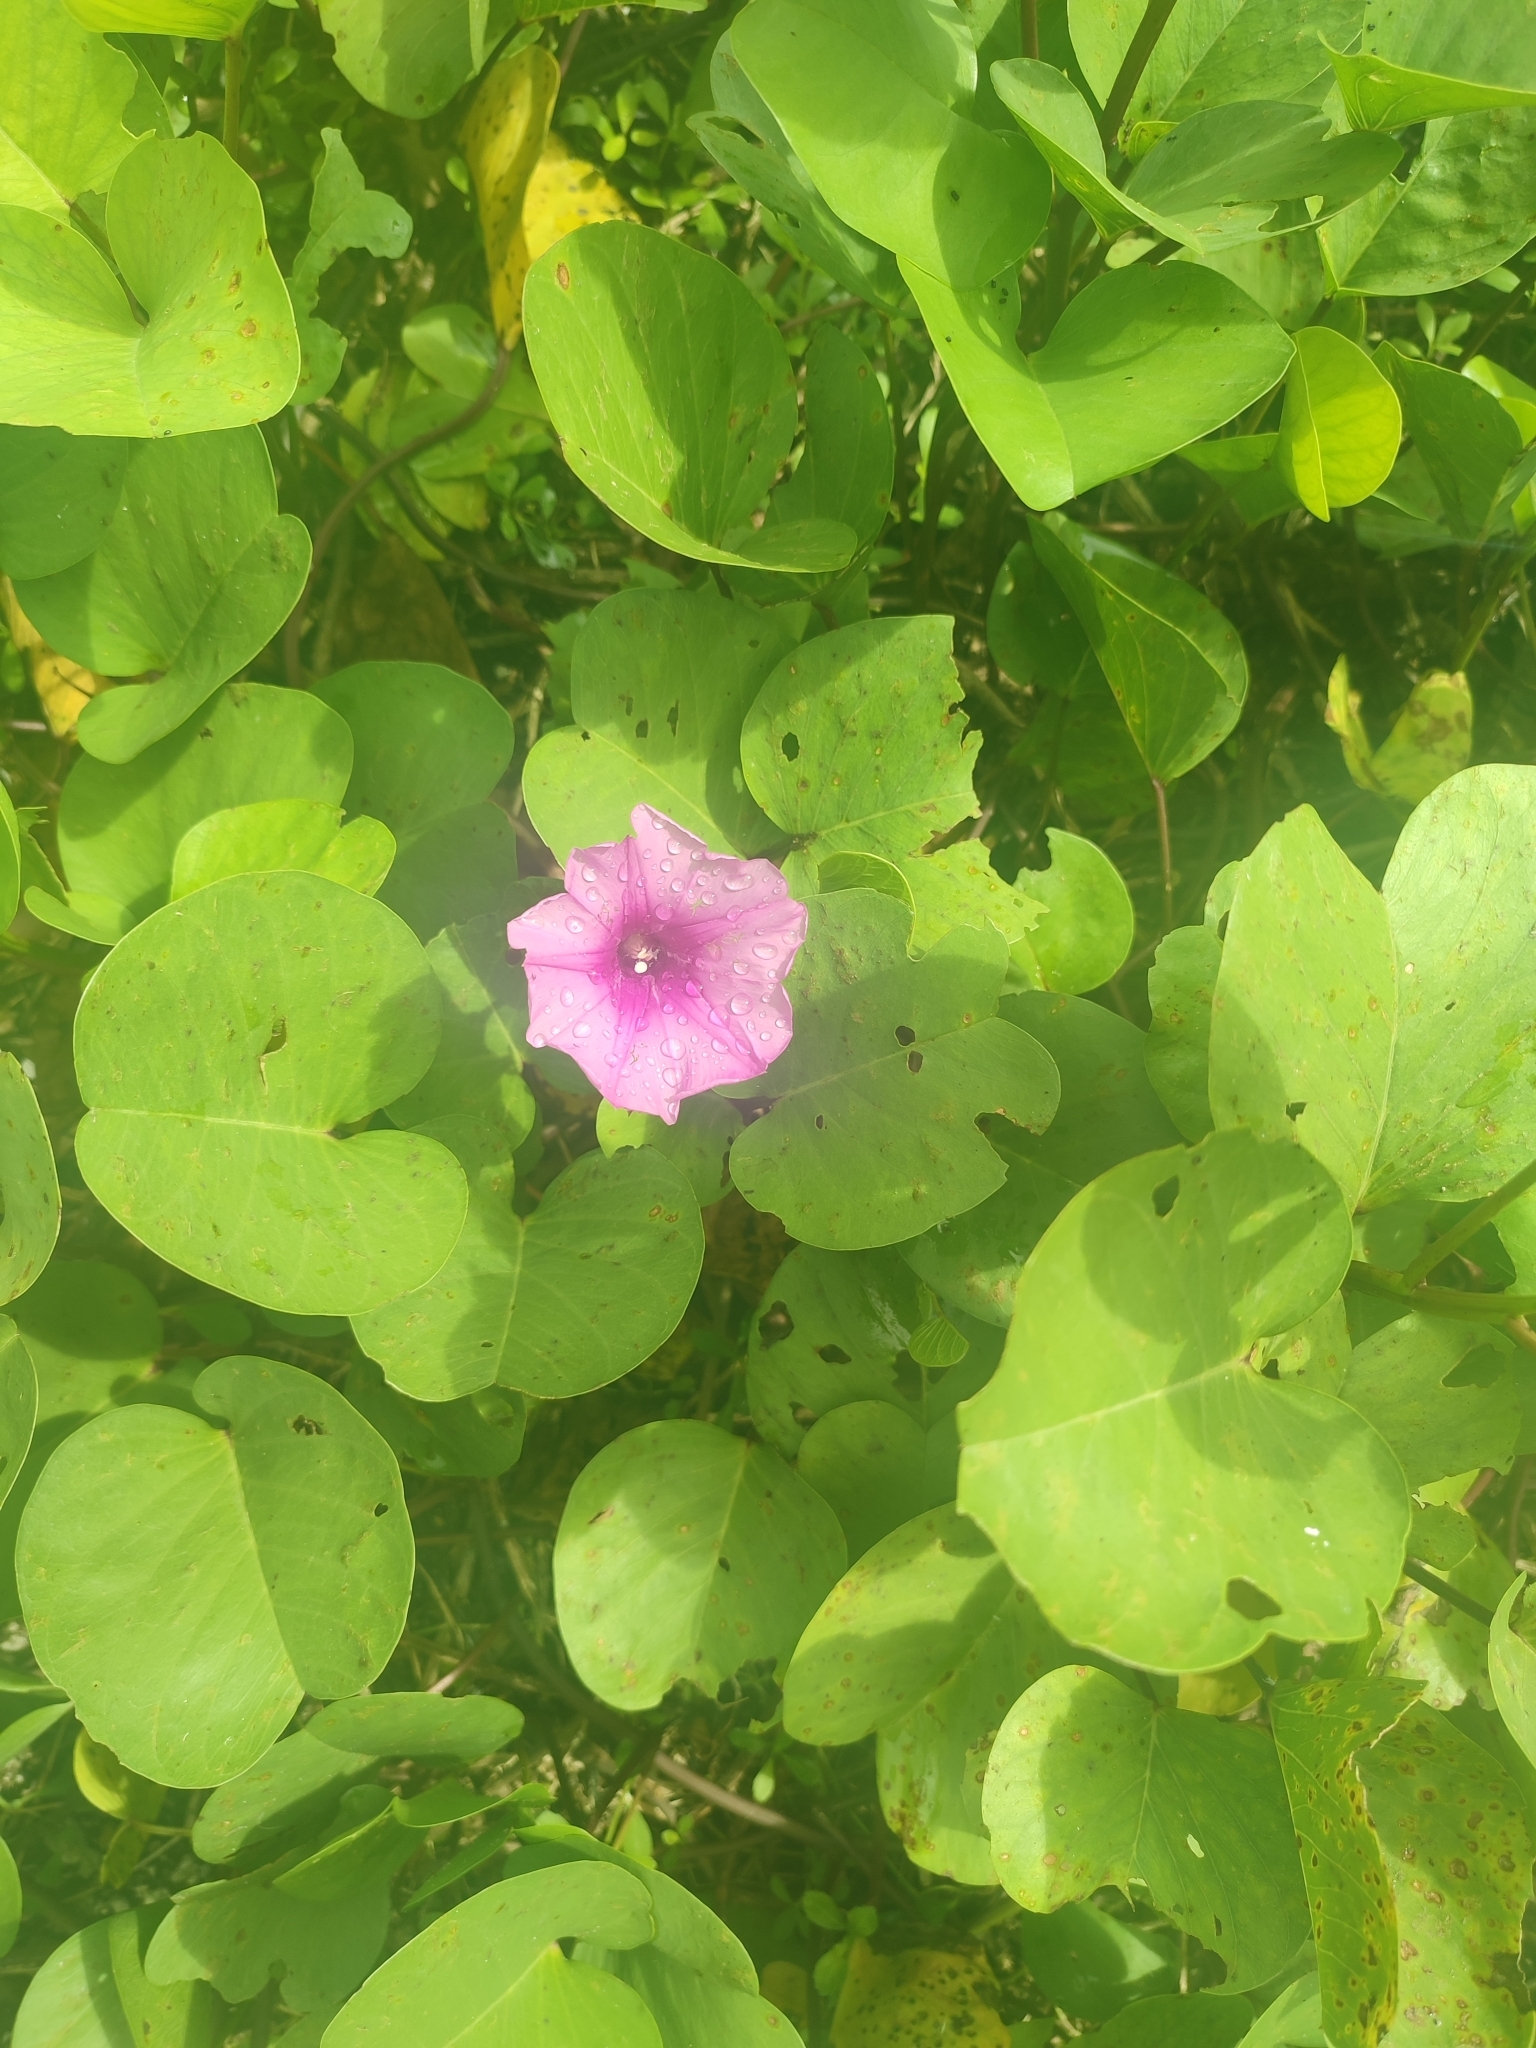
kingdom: Plantae
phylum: Tracheophyta
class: Magnoliopsida
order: Solanales
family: Convolvulaceae
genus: Ipomoea
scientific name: Ipomoea pes-caprae
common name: Beach morning glory
